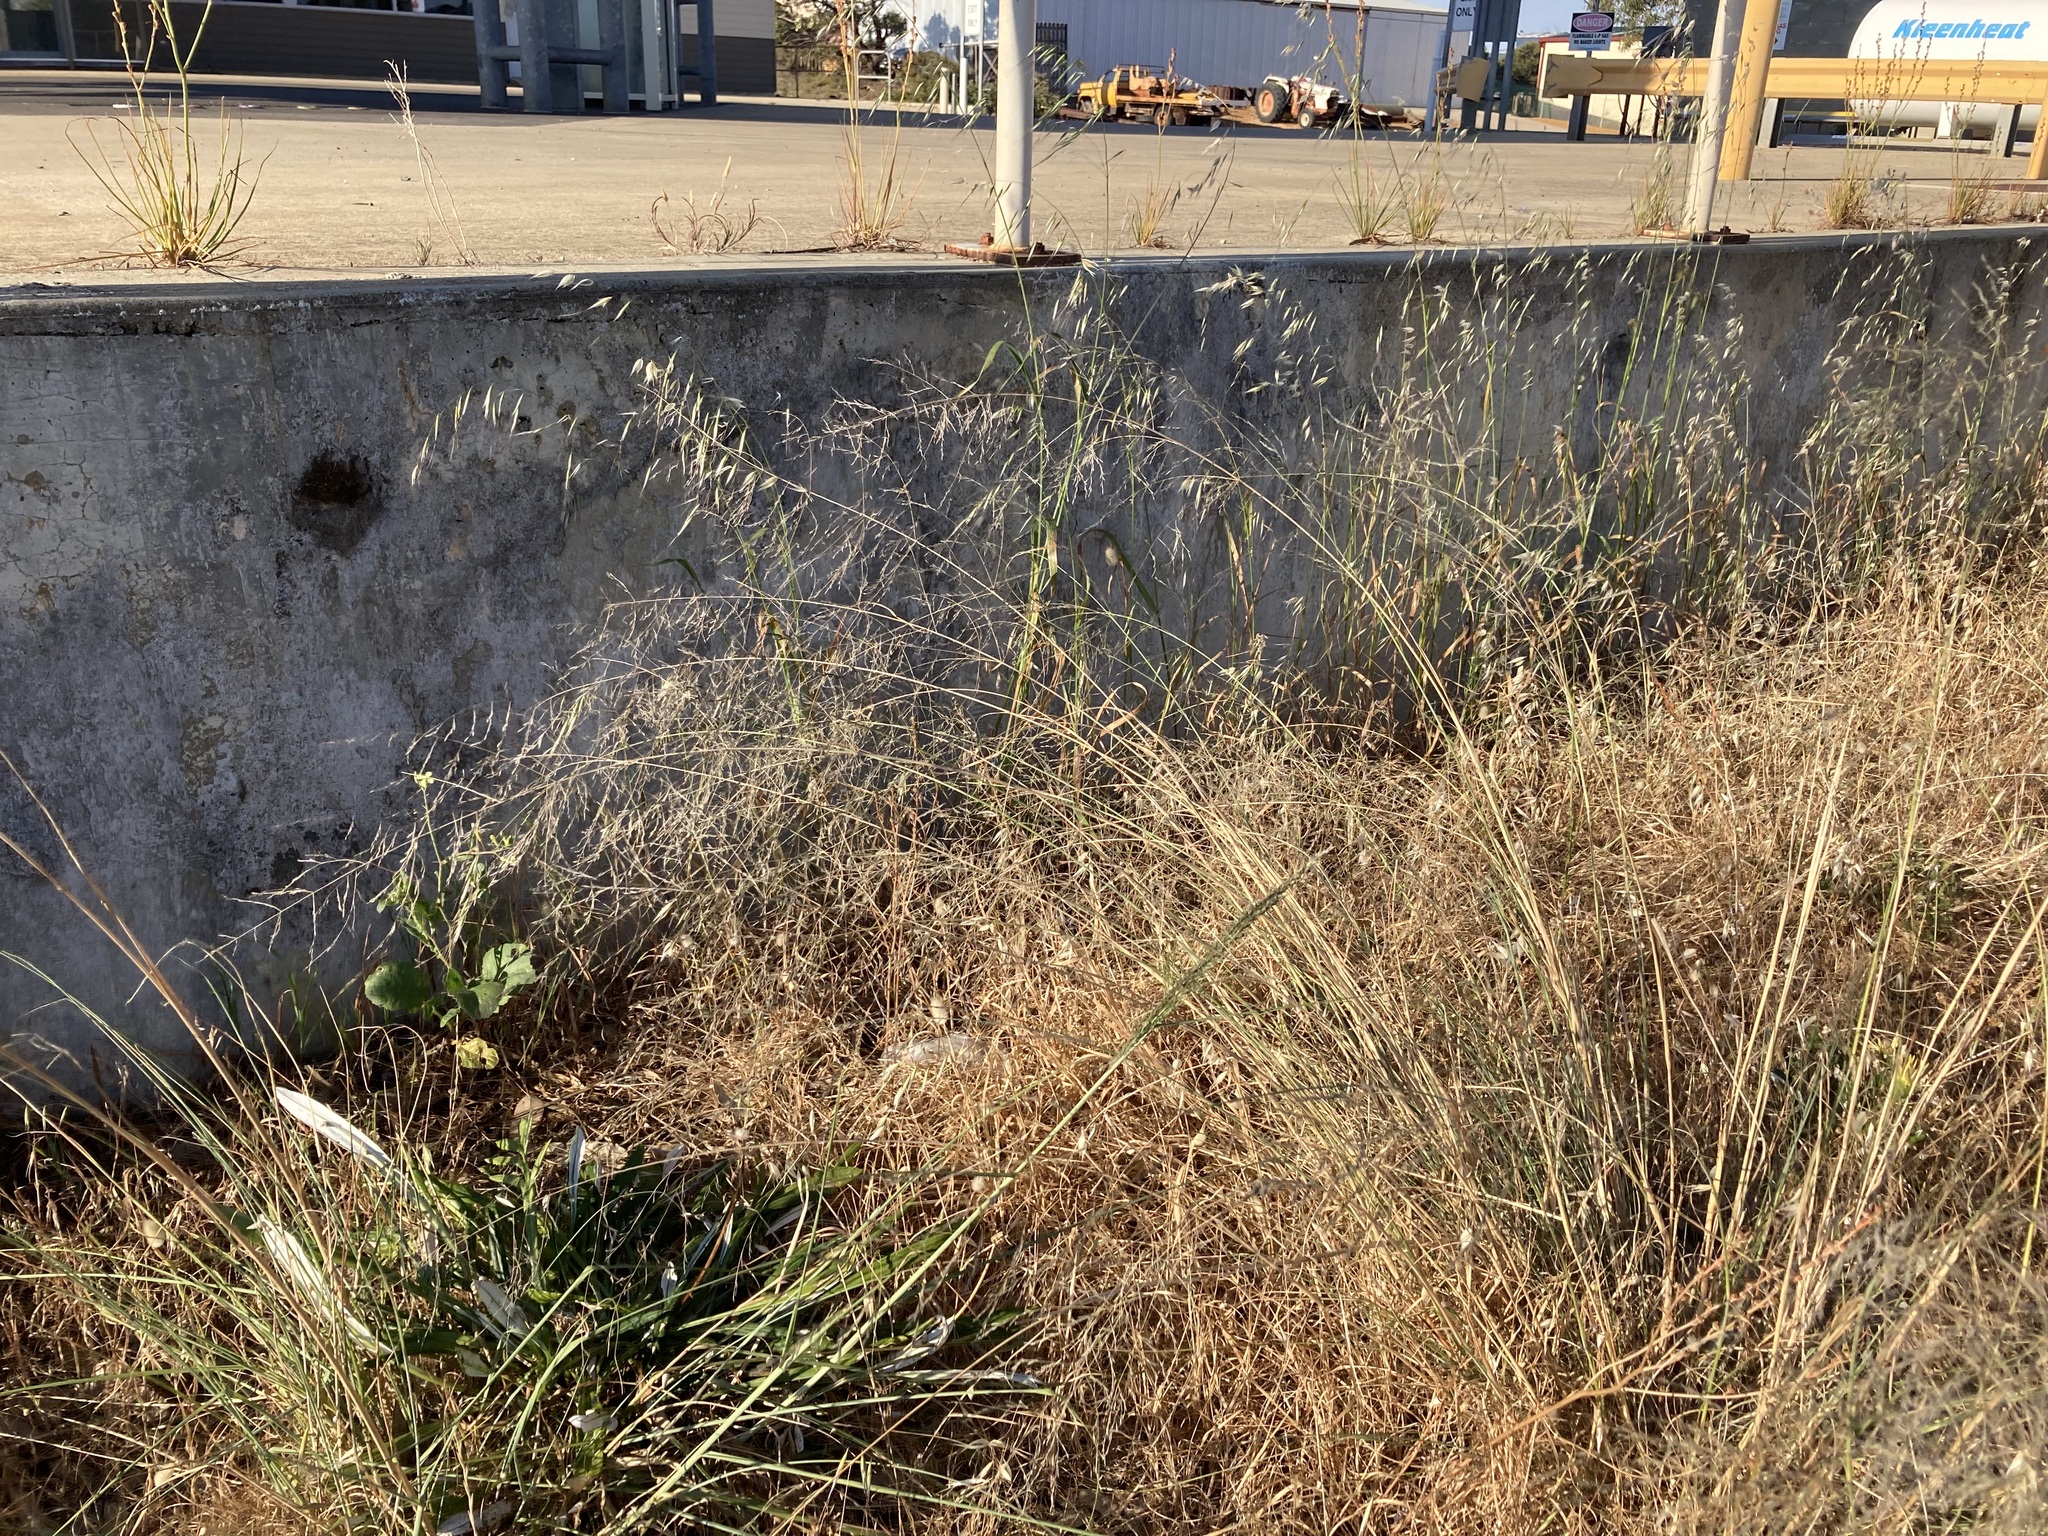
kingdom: Plantae
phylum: Tracheophyta
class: Liliopsida
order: Poales
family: Poaceae
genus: Eragrostis
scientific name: Eragrostis curvula
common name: African love-grass
